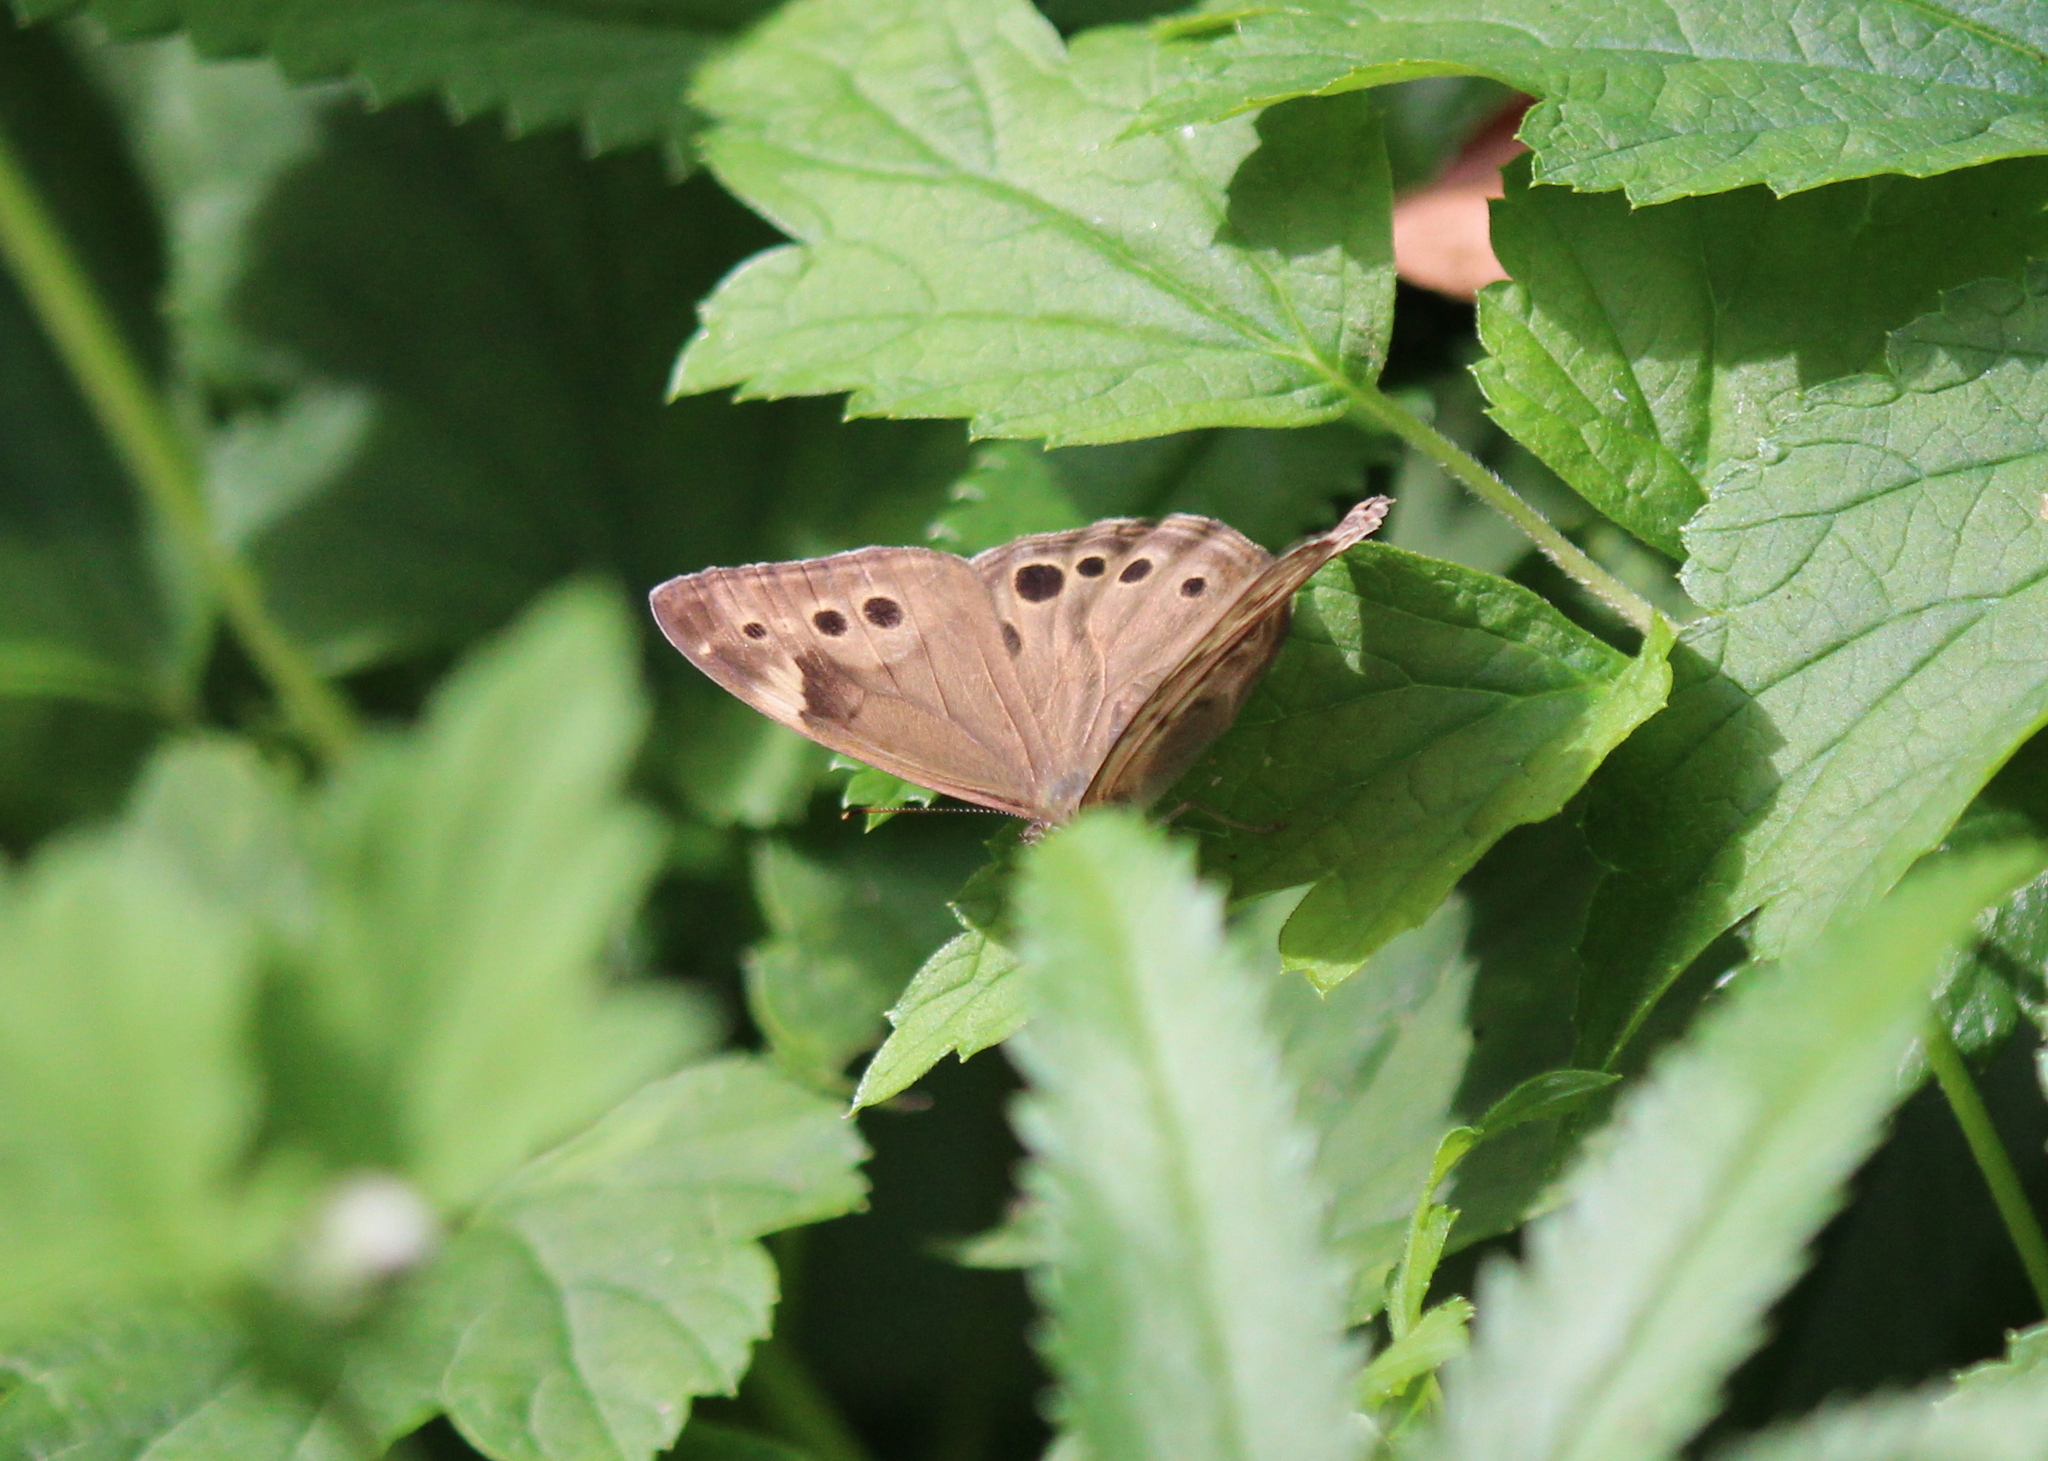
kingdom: Animalia
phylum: Arthropoda
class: Insecta
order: Lepidoptera
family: Nymphalidae
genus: Lethe
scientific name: Lethe anthedon
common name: Northern pearly-eye
